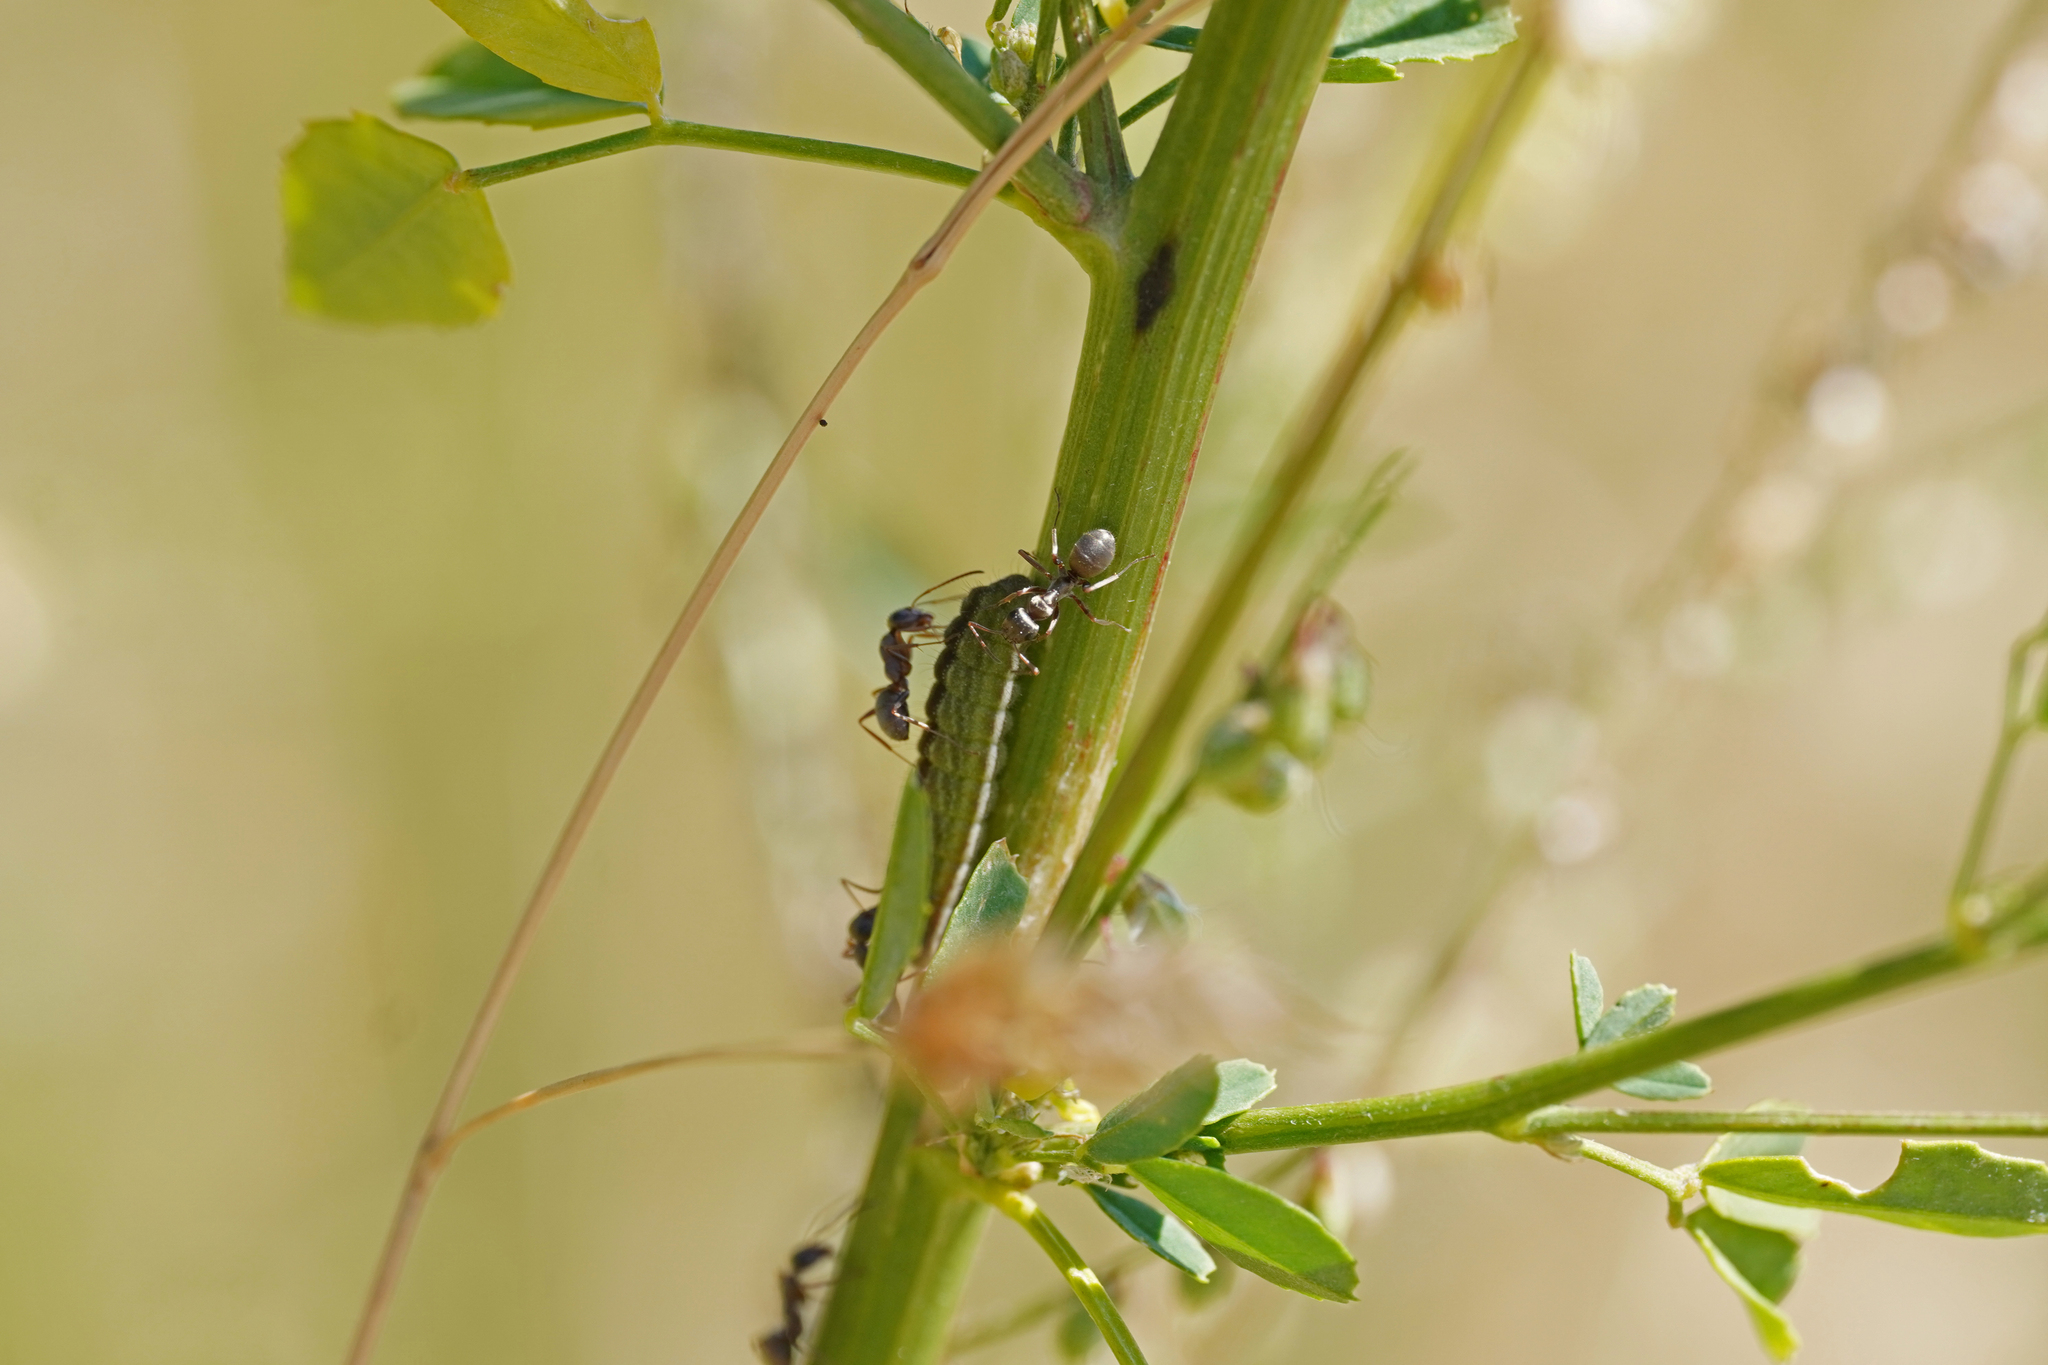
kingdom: Animalia
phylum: Arthropoda
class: Insecta
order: Lepidoptera
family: Lycaenidae
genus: Lycaeides
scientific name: Lycaeides idas
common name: Northern blue
